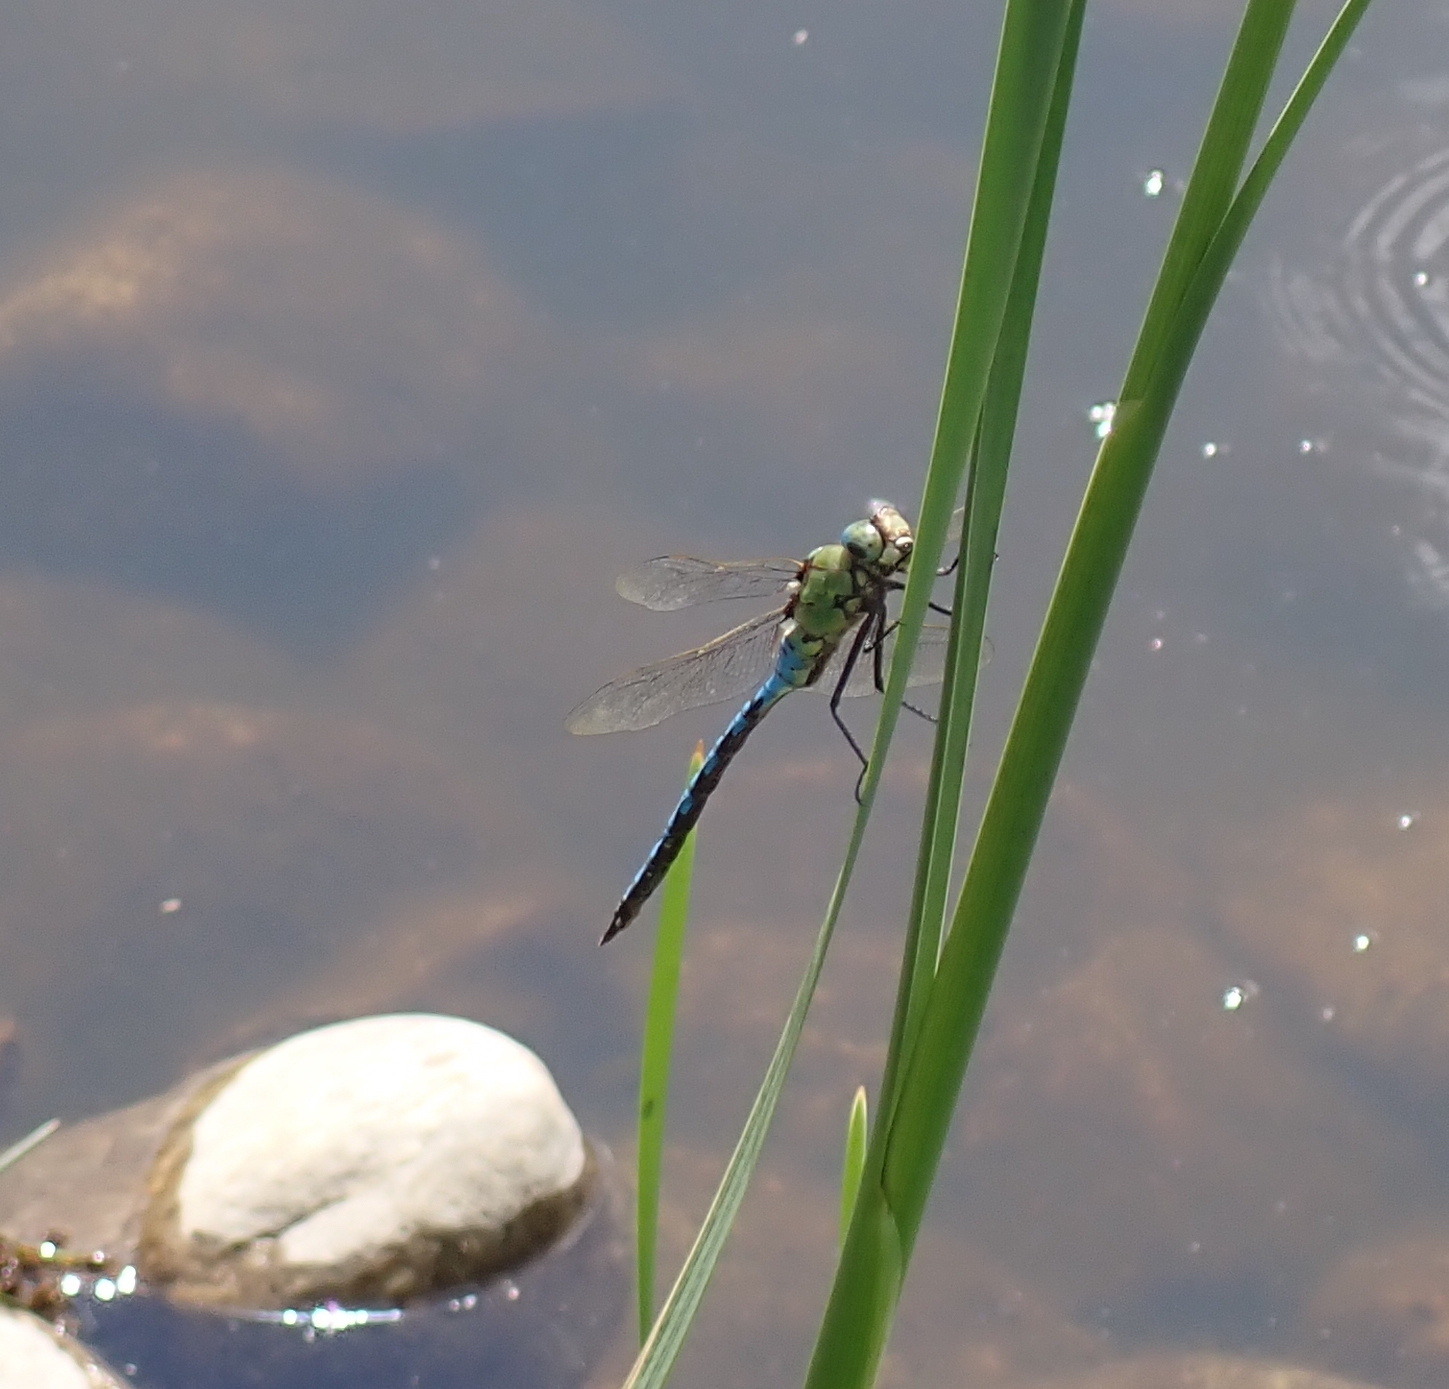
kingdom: Animalia
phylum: Arthropoda
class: Insecta
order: Odonata
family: Aeshnidae
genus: Anax
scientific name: Anax imperator
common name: Emperor dragonfly
